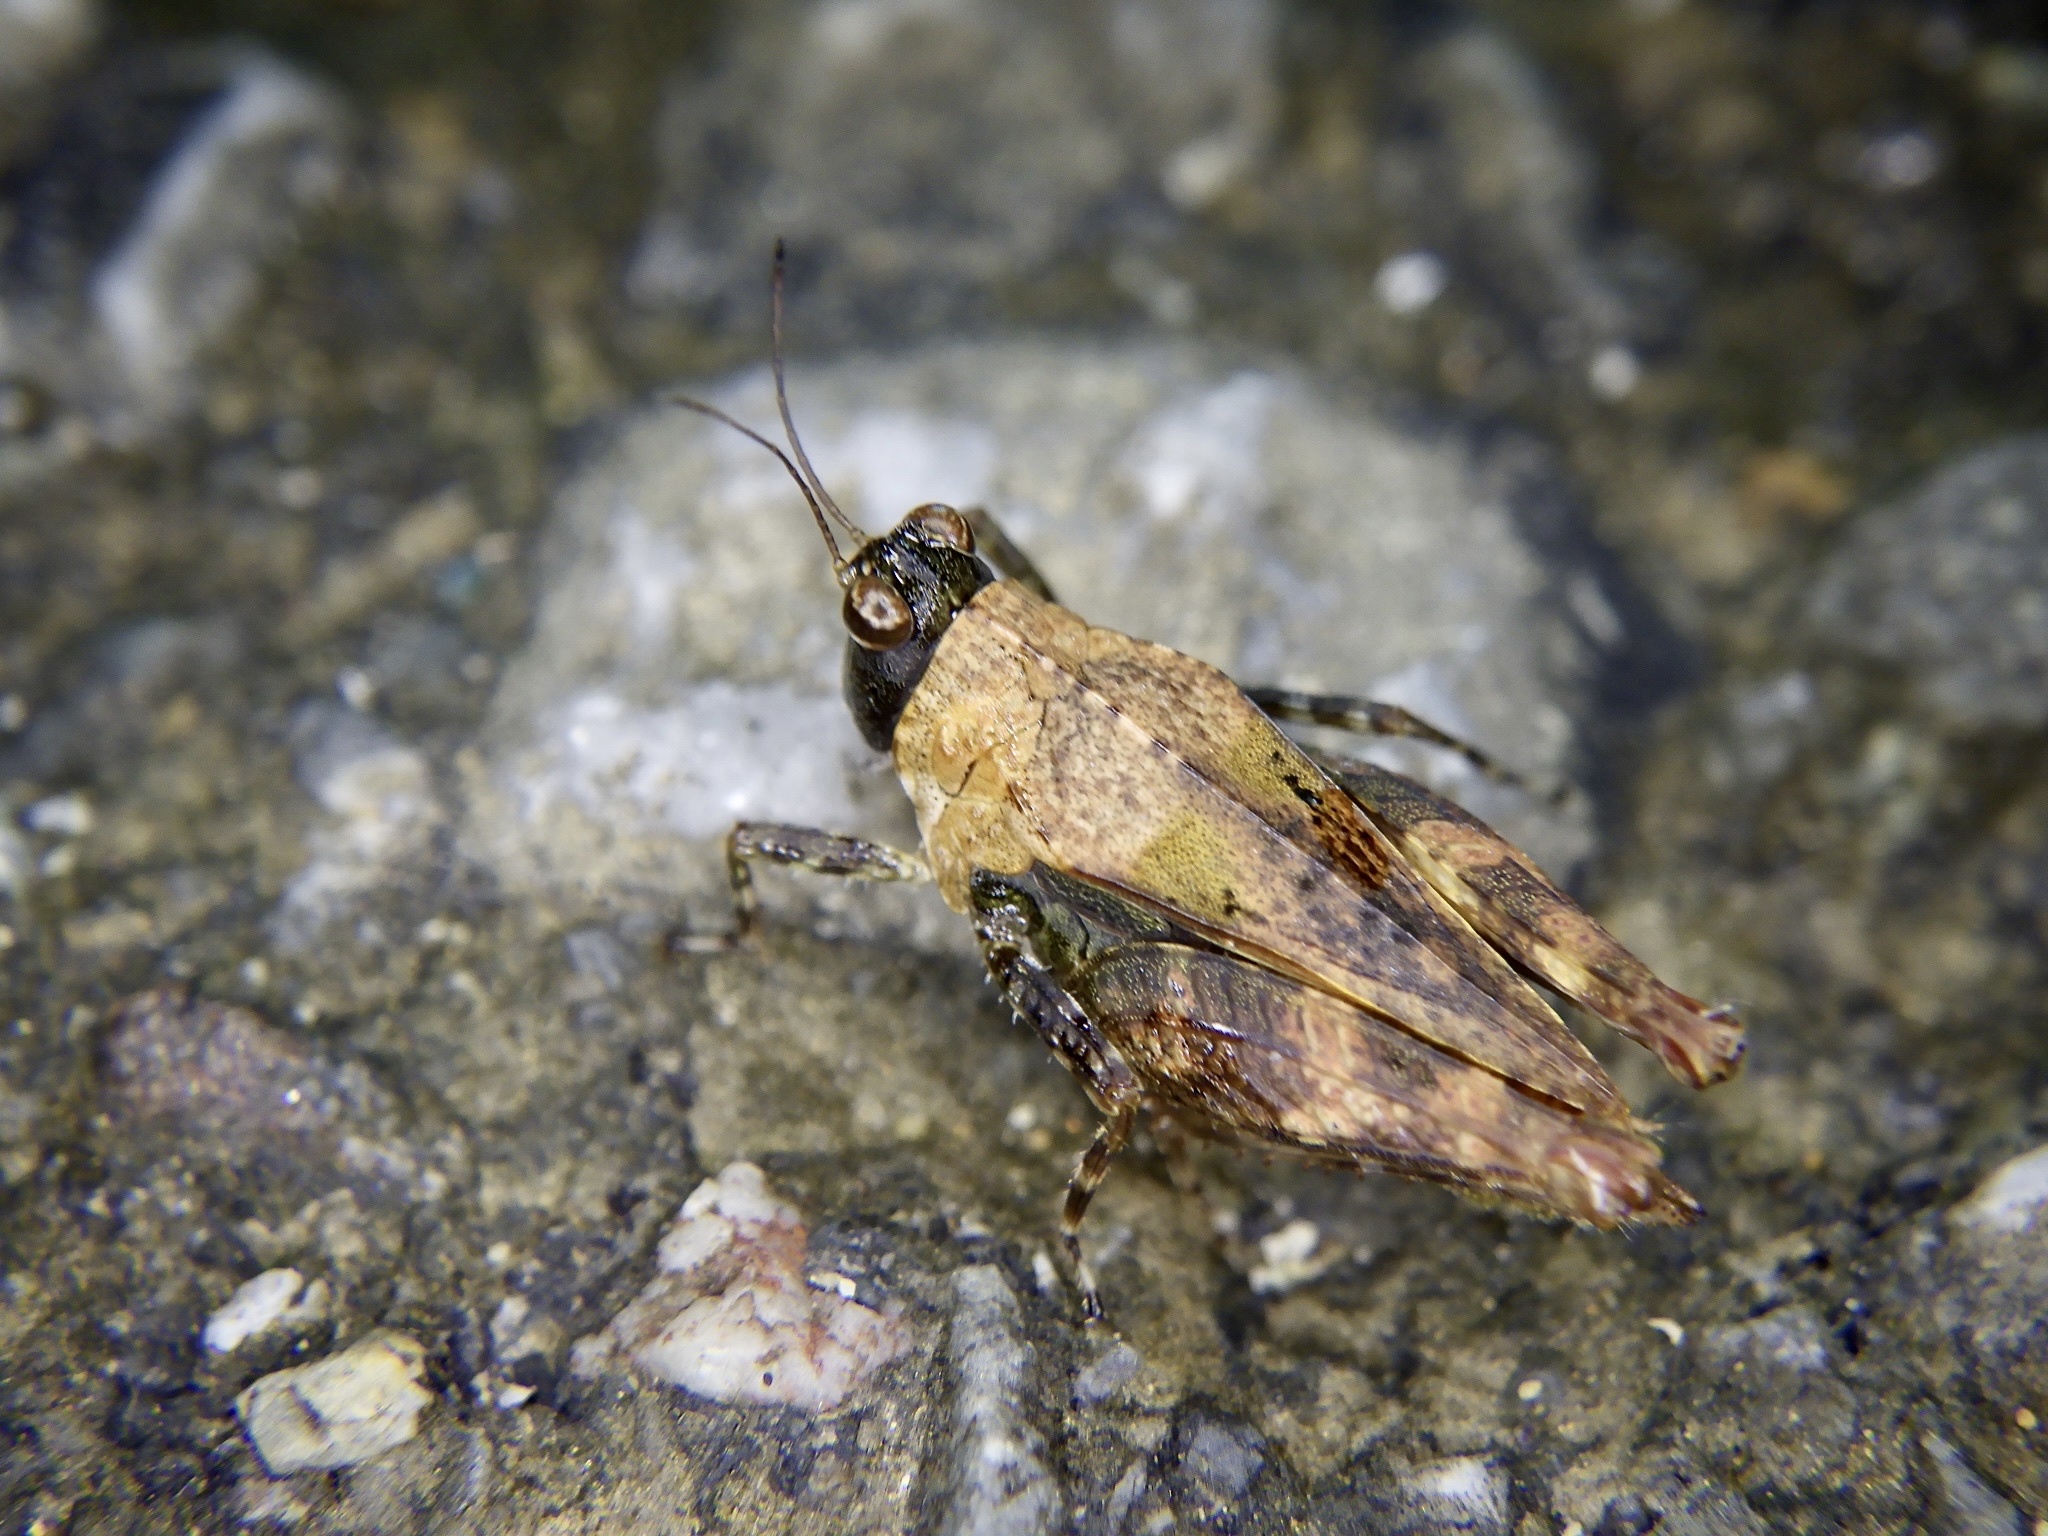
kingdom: Animalia
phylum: Arthropoda
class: Insecta
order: Orthoptera
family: Tetrigidae
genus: Tetrix
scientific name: Tetrix japonica
